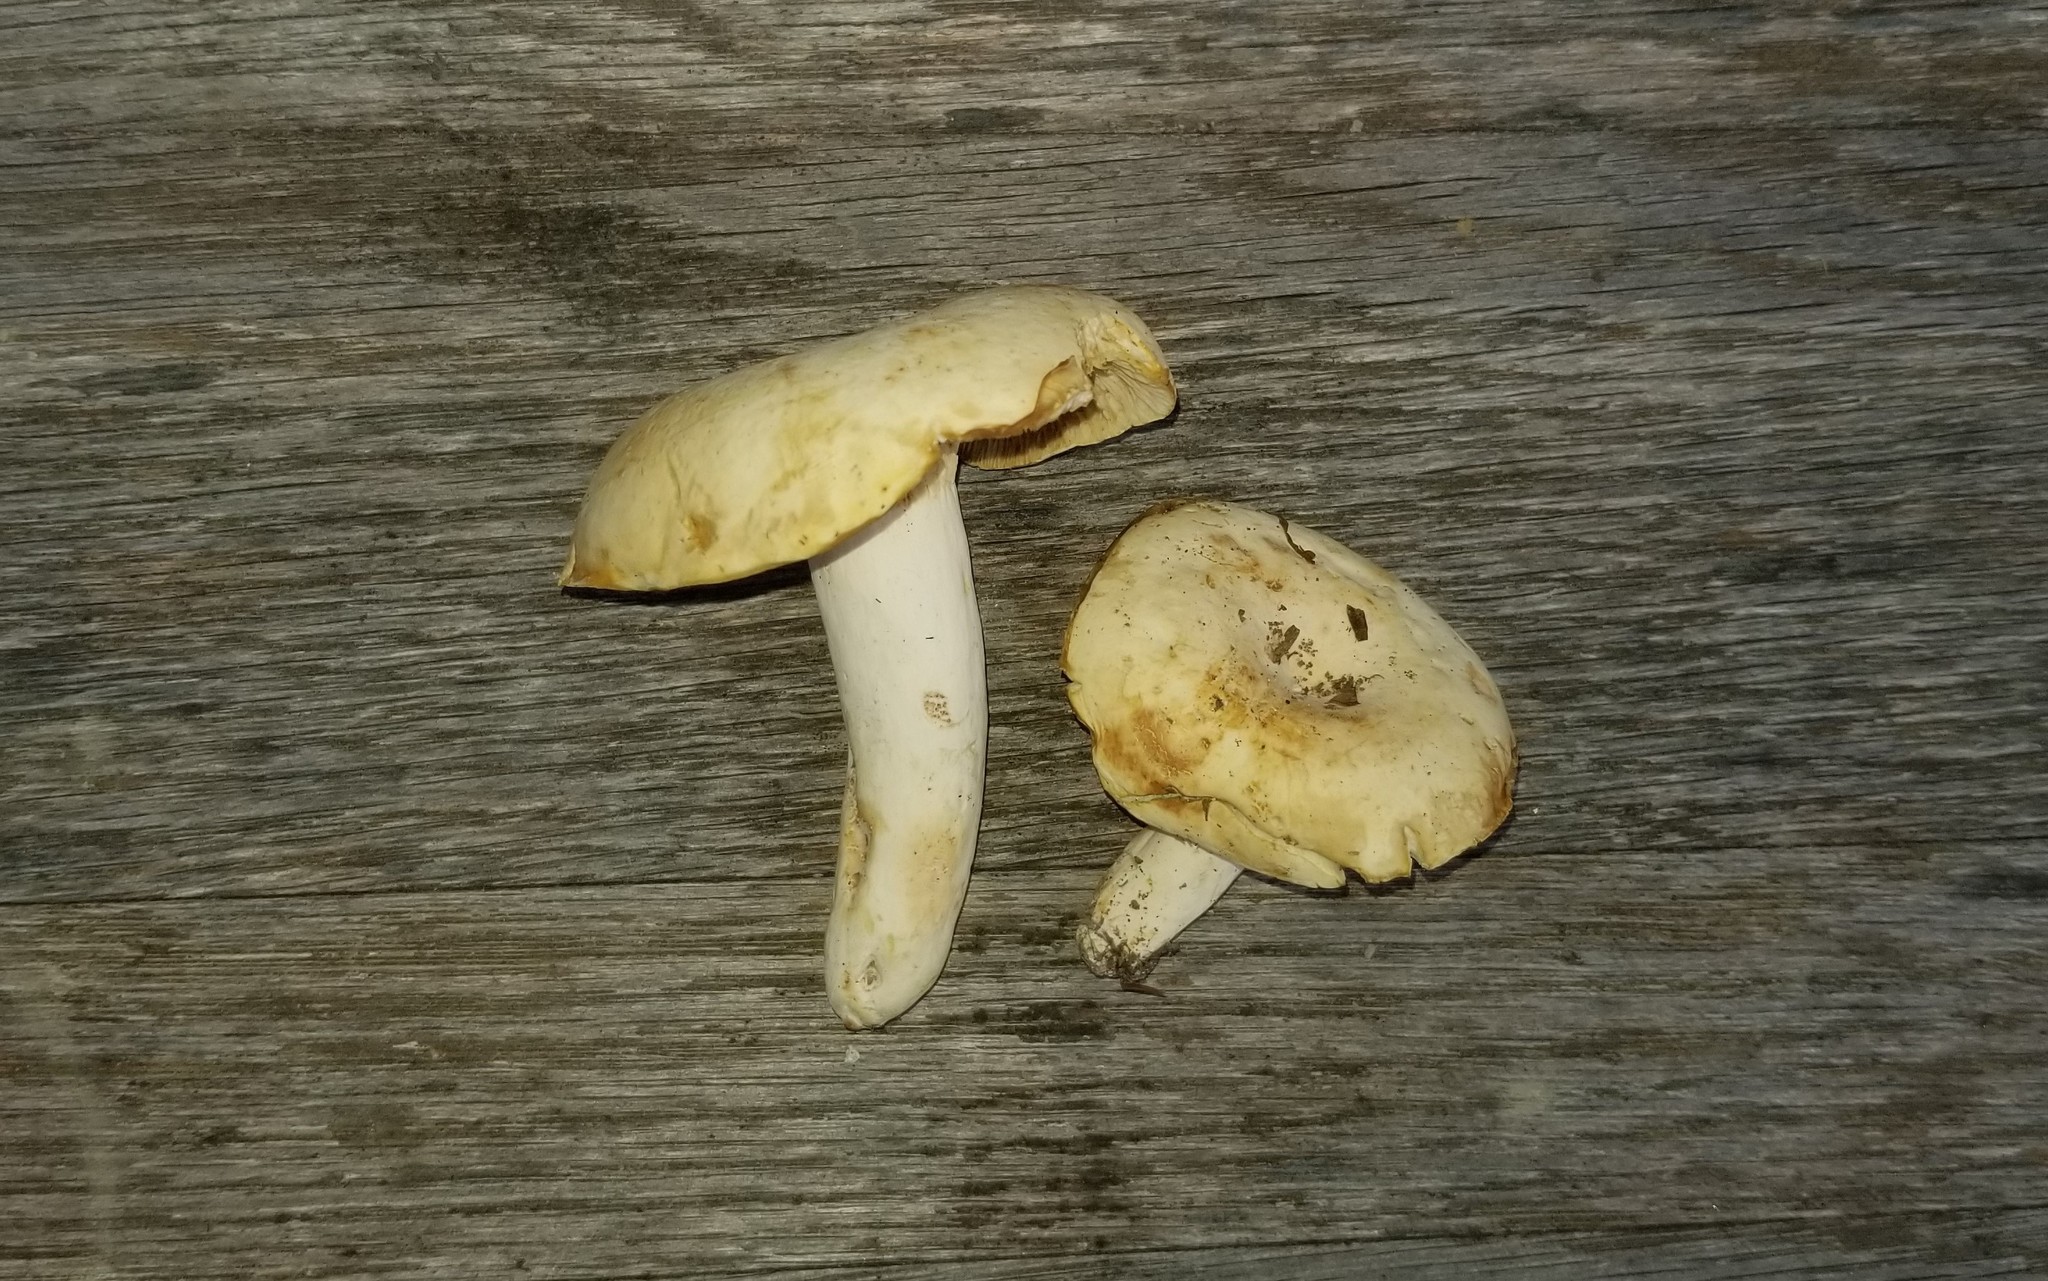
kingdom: Fungi
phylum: Basidiomycota
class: Agaricomycetes
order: Russulales
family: Russulaceae
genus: Lactifluus
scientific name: Lactifluus glaucescens
